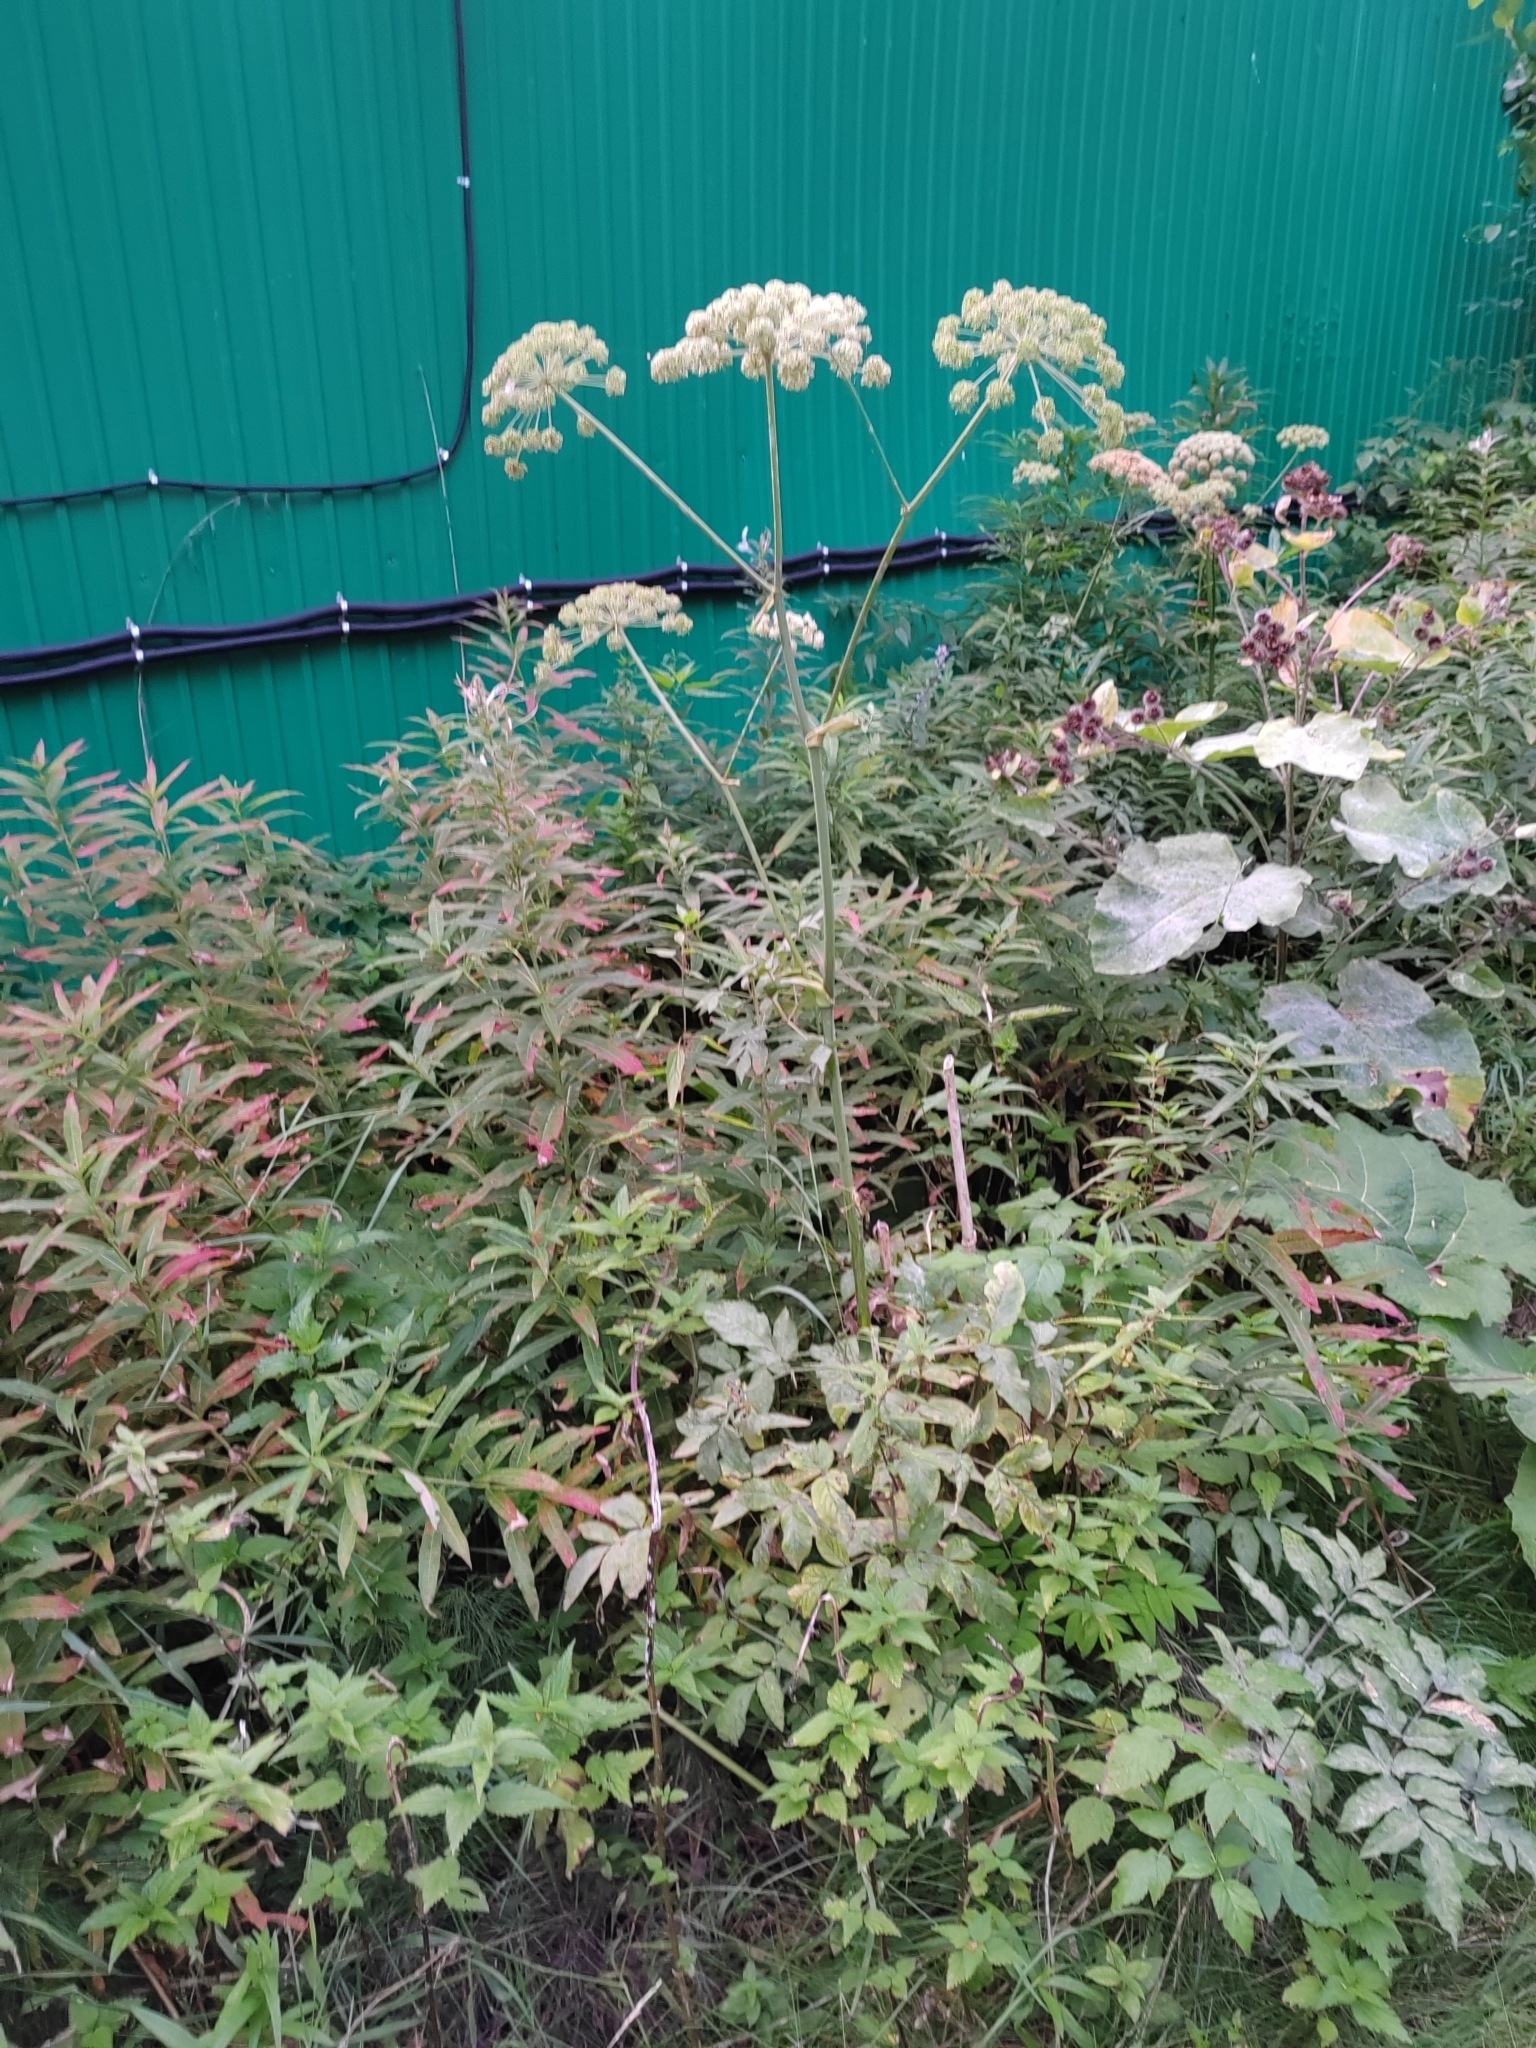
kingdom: Plantae
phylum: Tracheophyta
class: Magnoliopsida
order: Apiales
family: Apiaceae
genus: Angelica
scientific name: Angelica sylvestris
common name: Wild angelica
